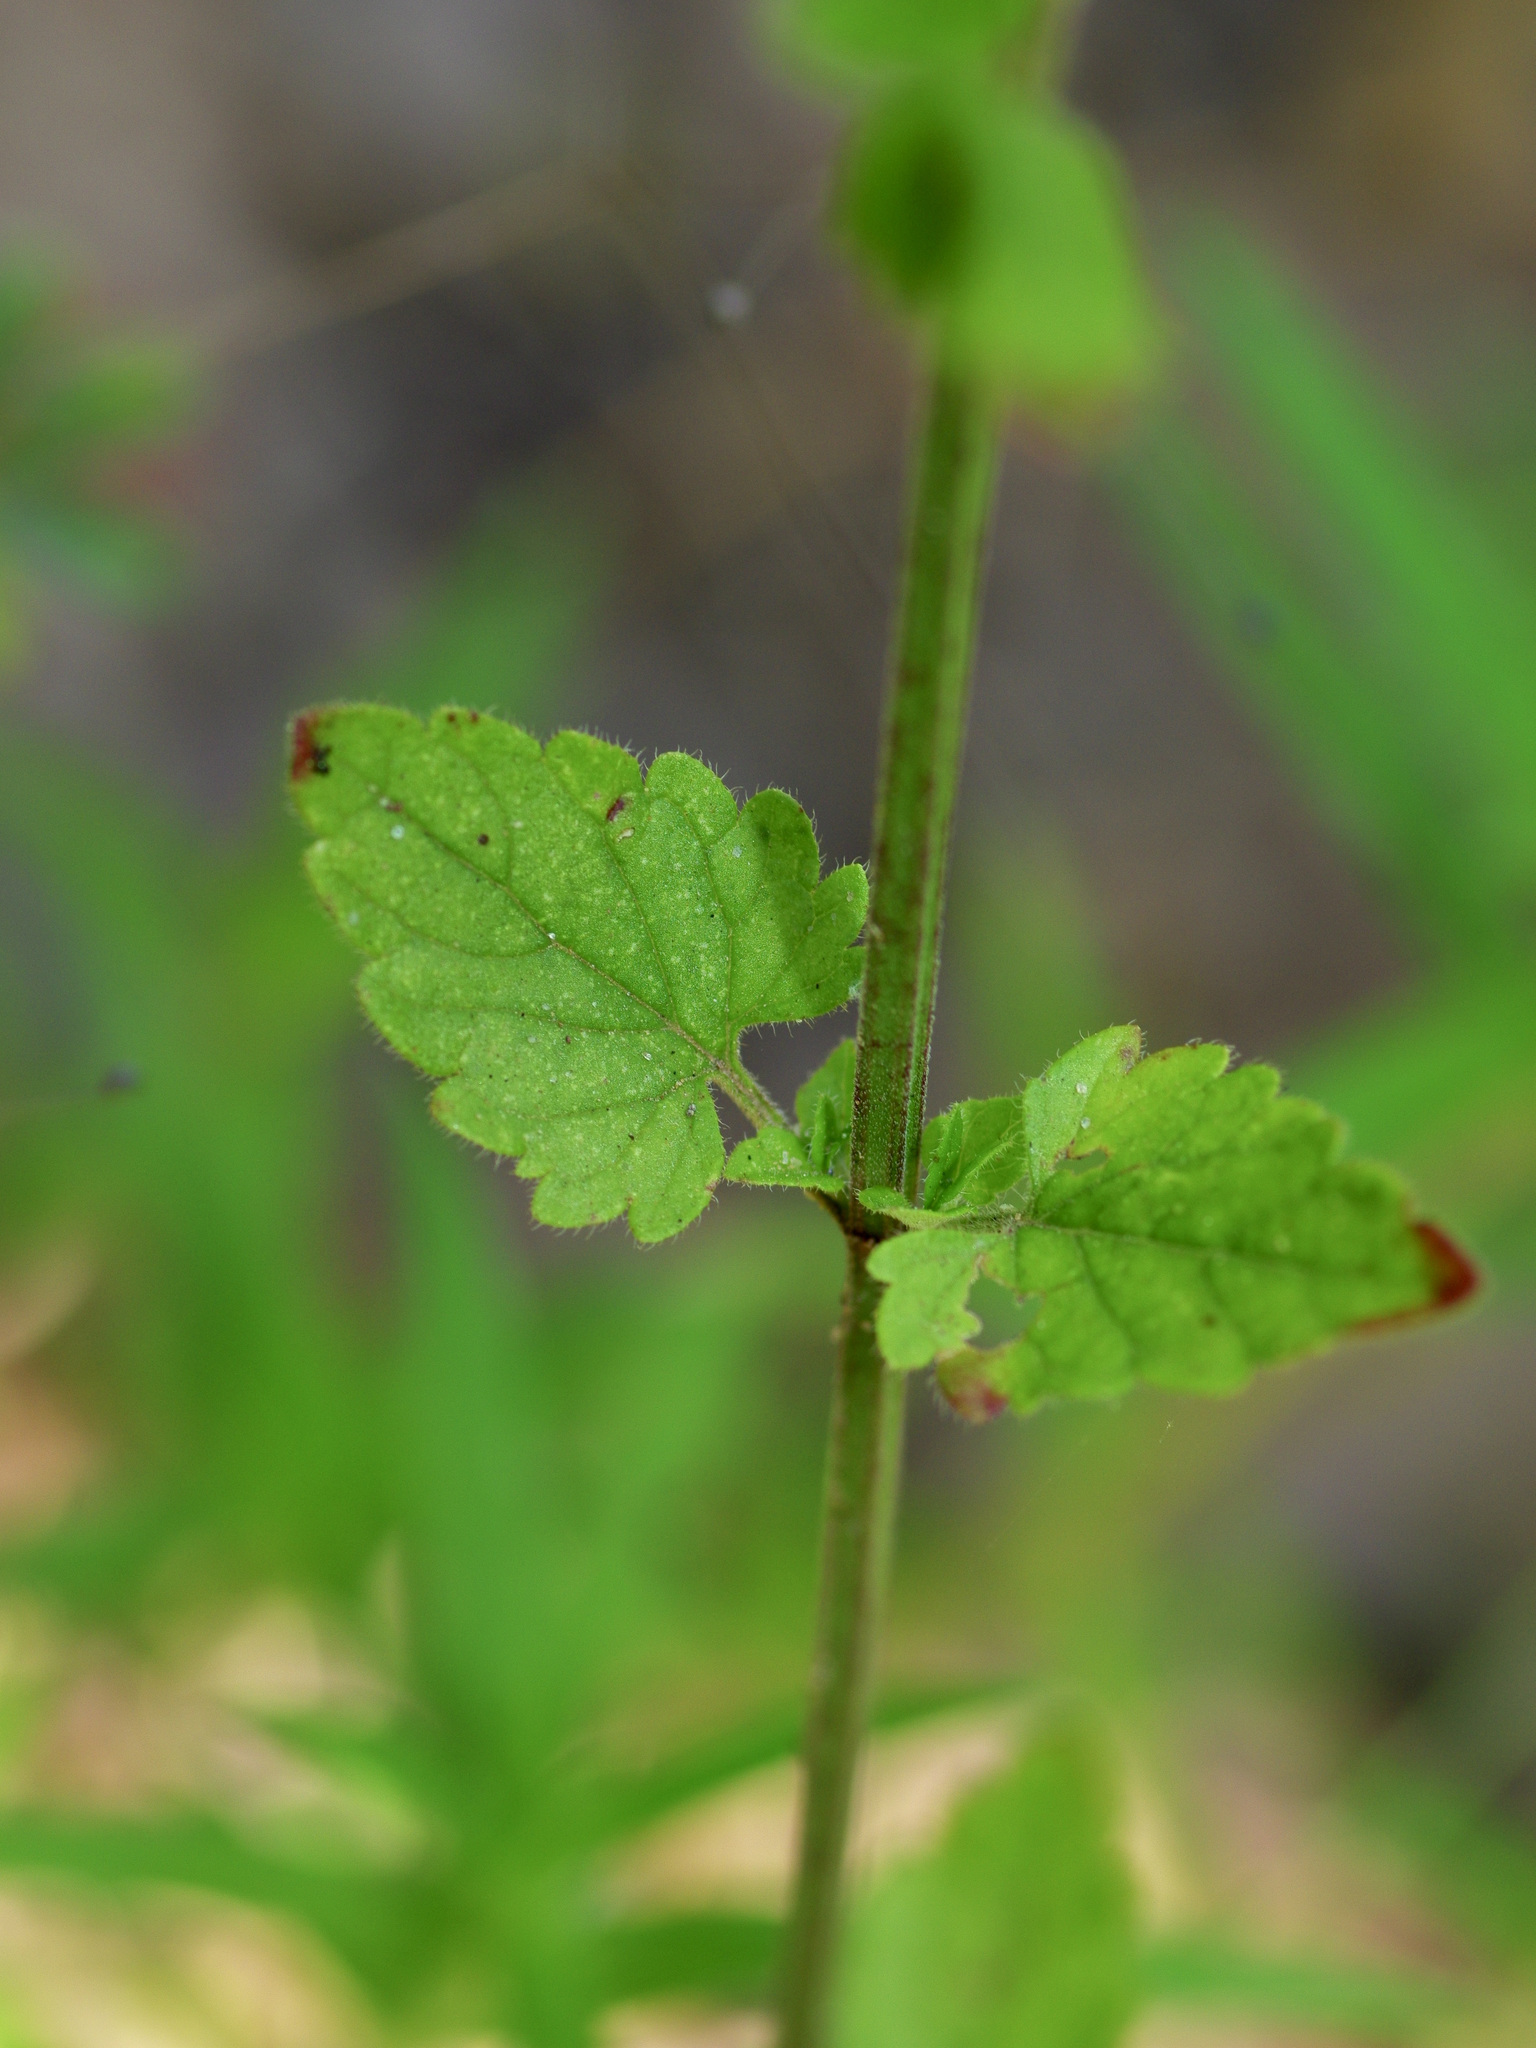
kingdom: Plantae
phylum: Tracheophyta
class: Magnoliopsida
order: Lamiales
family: Lamiaceae
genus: Scutellaria
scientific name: Scutellaria cardiophylla
